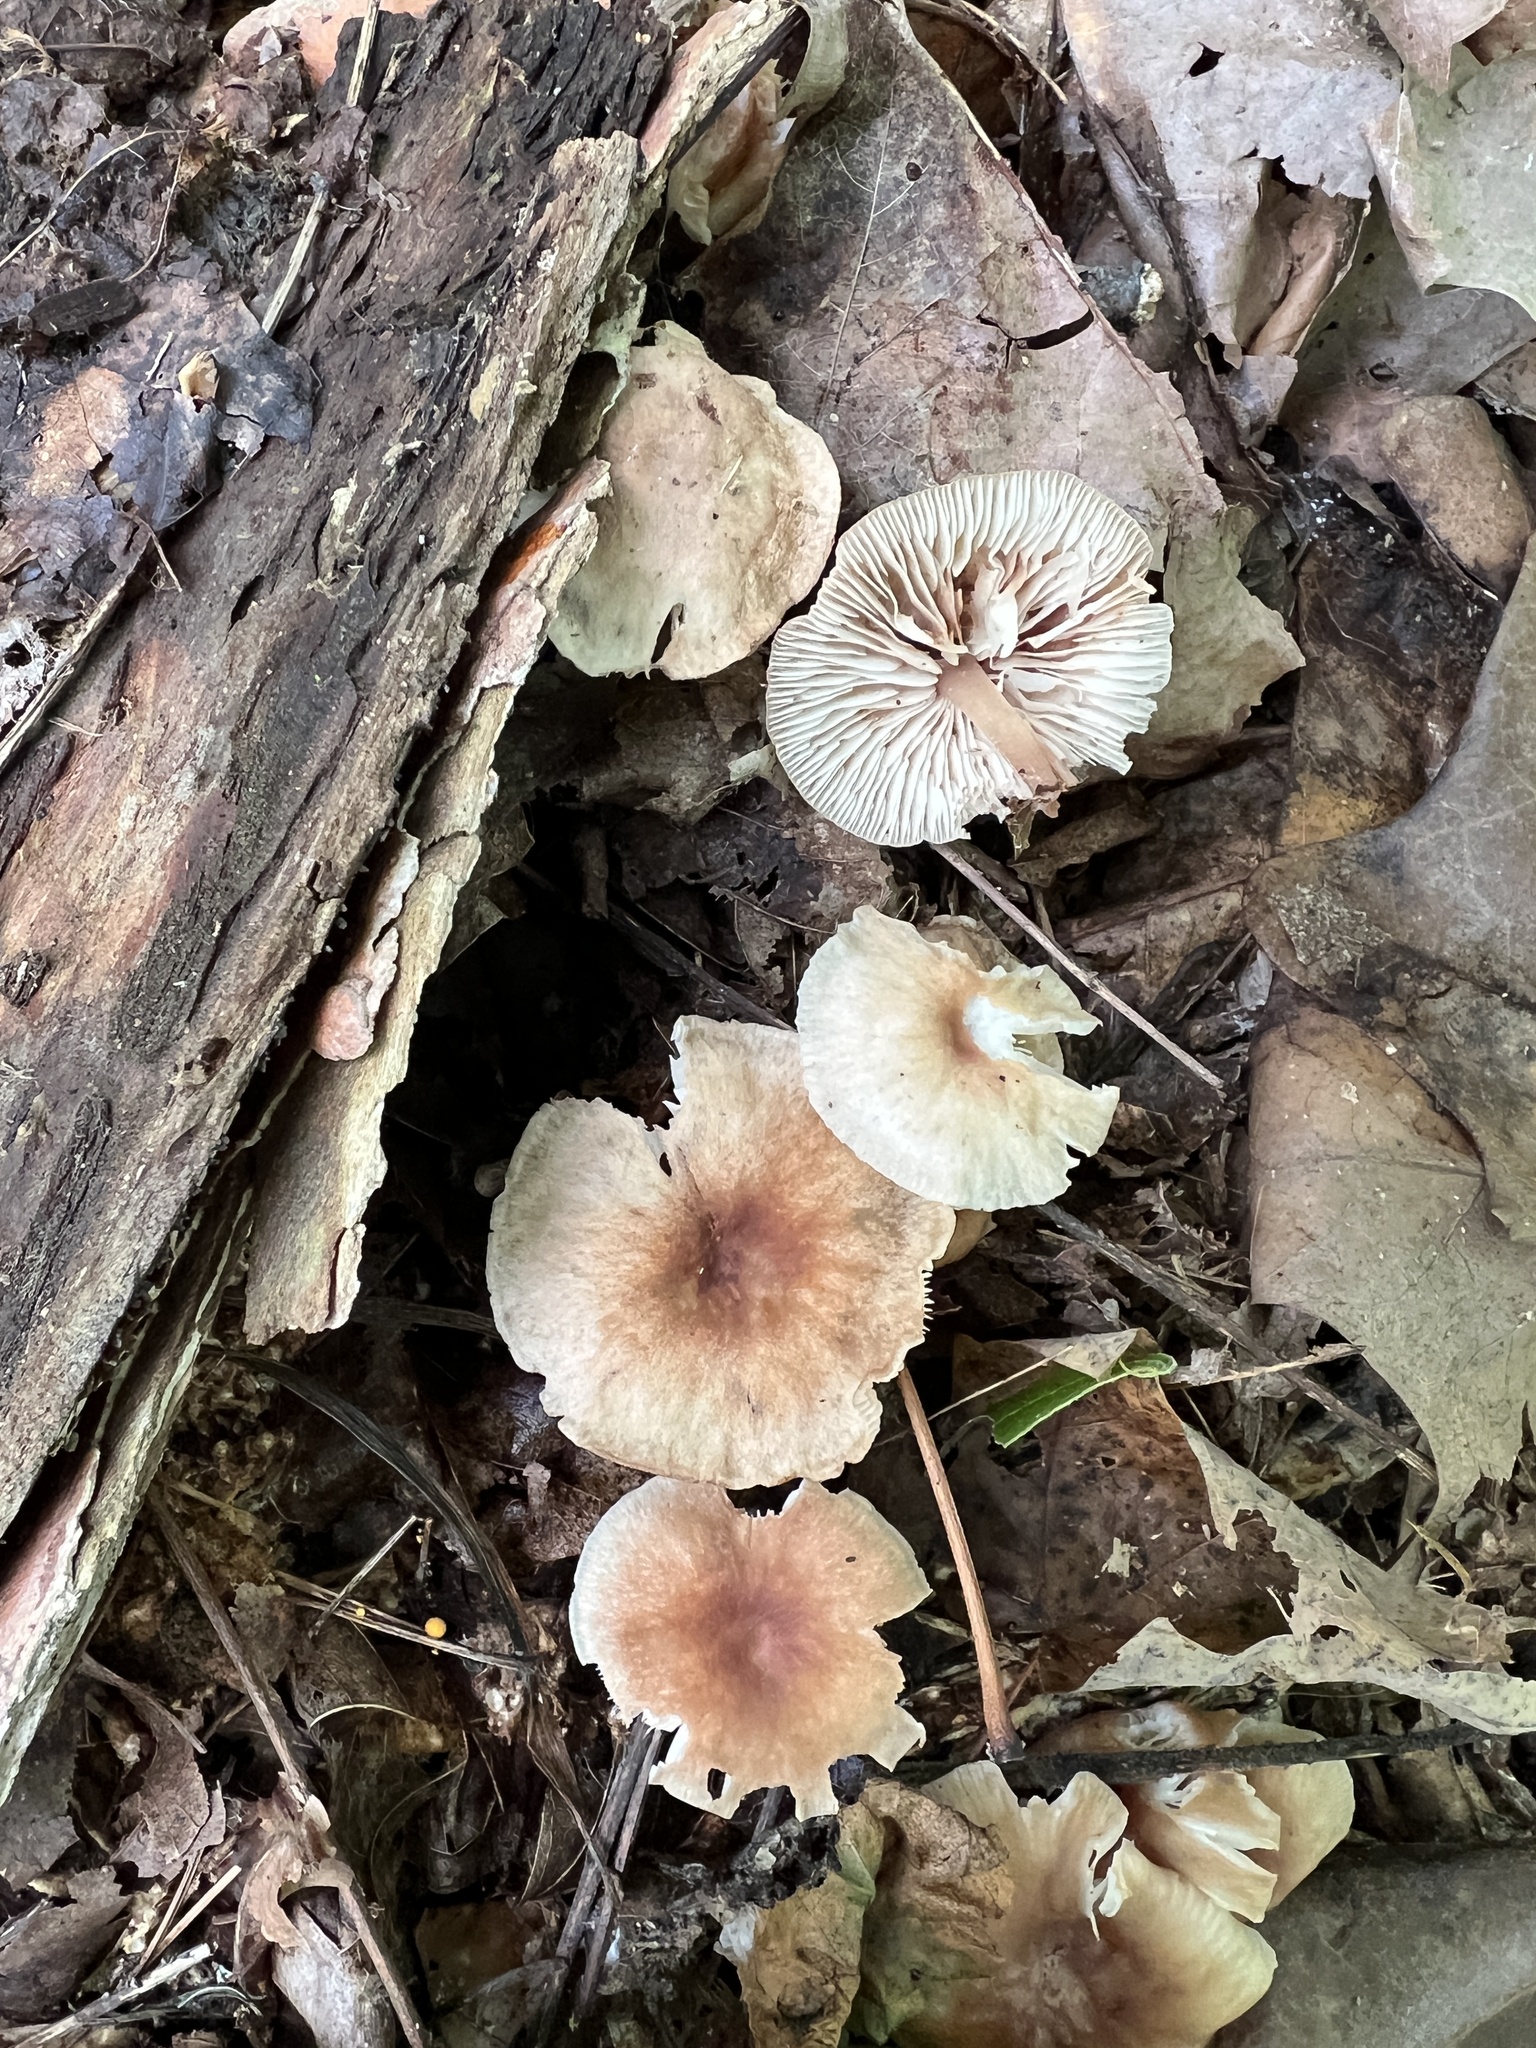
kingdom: Fungi
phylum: Basidiomycota
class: Agaricomycetes
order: Agaricales
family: Omphalotaceae
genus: Collybiopsis
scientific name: Collybiopsis dichroa
